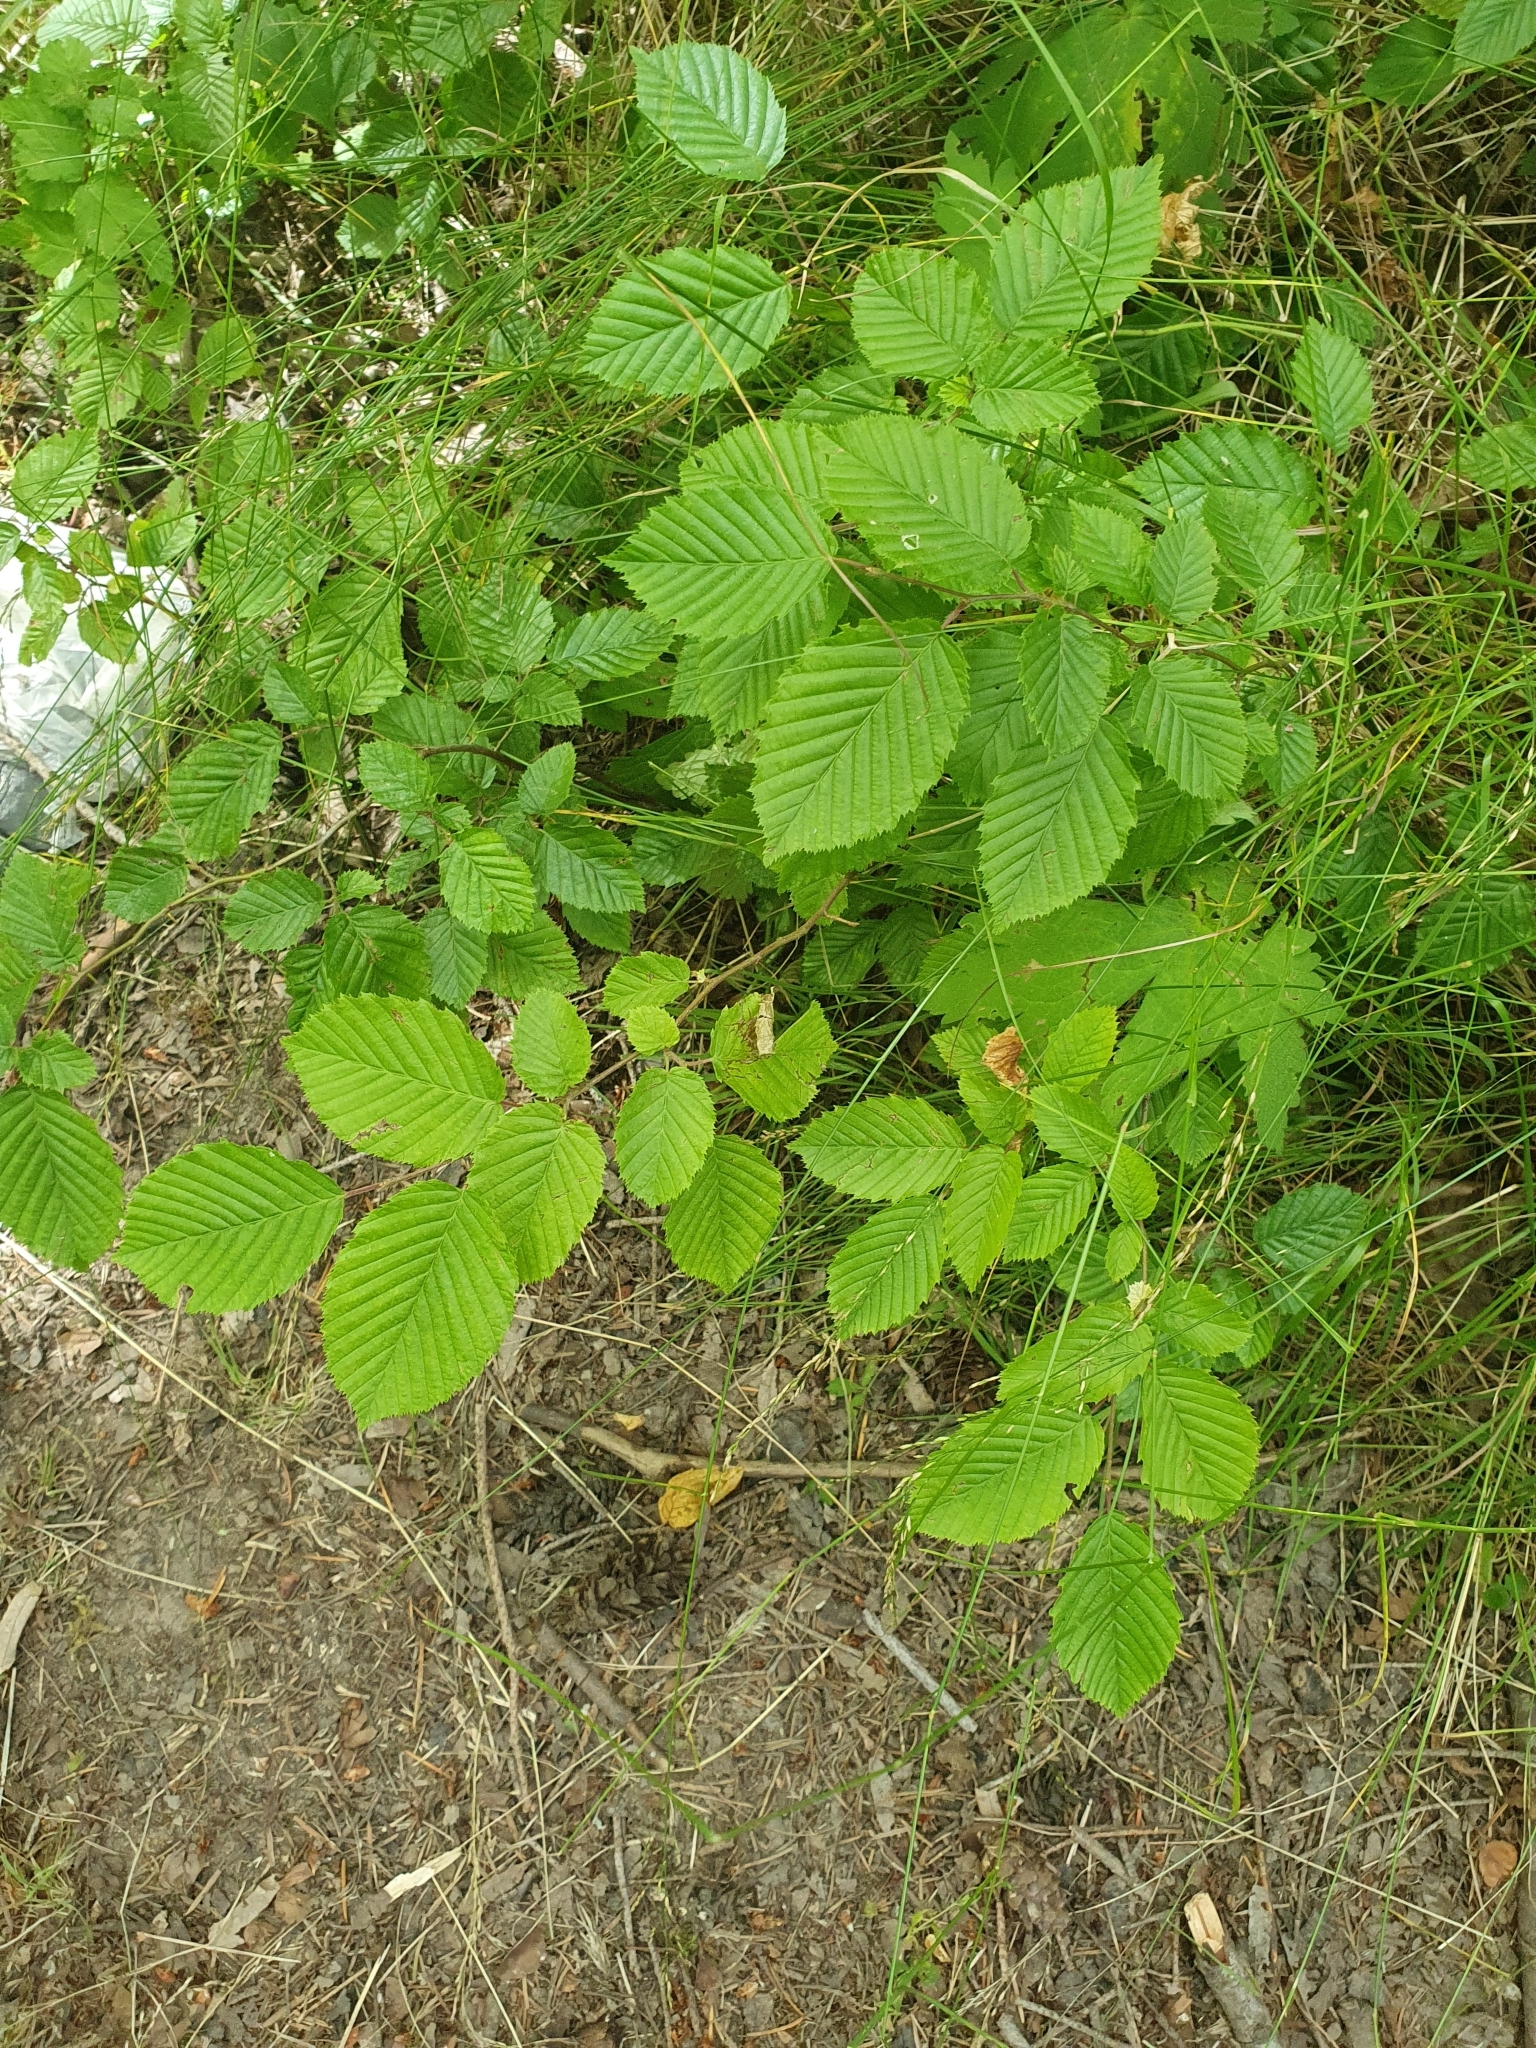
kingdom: Plantae
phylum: Tracheophyta
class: Magnoliopsida
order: Fagales
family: Betulaceae
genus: Carpinus
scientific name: Carpinus betulus
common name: Hornbeam
